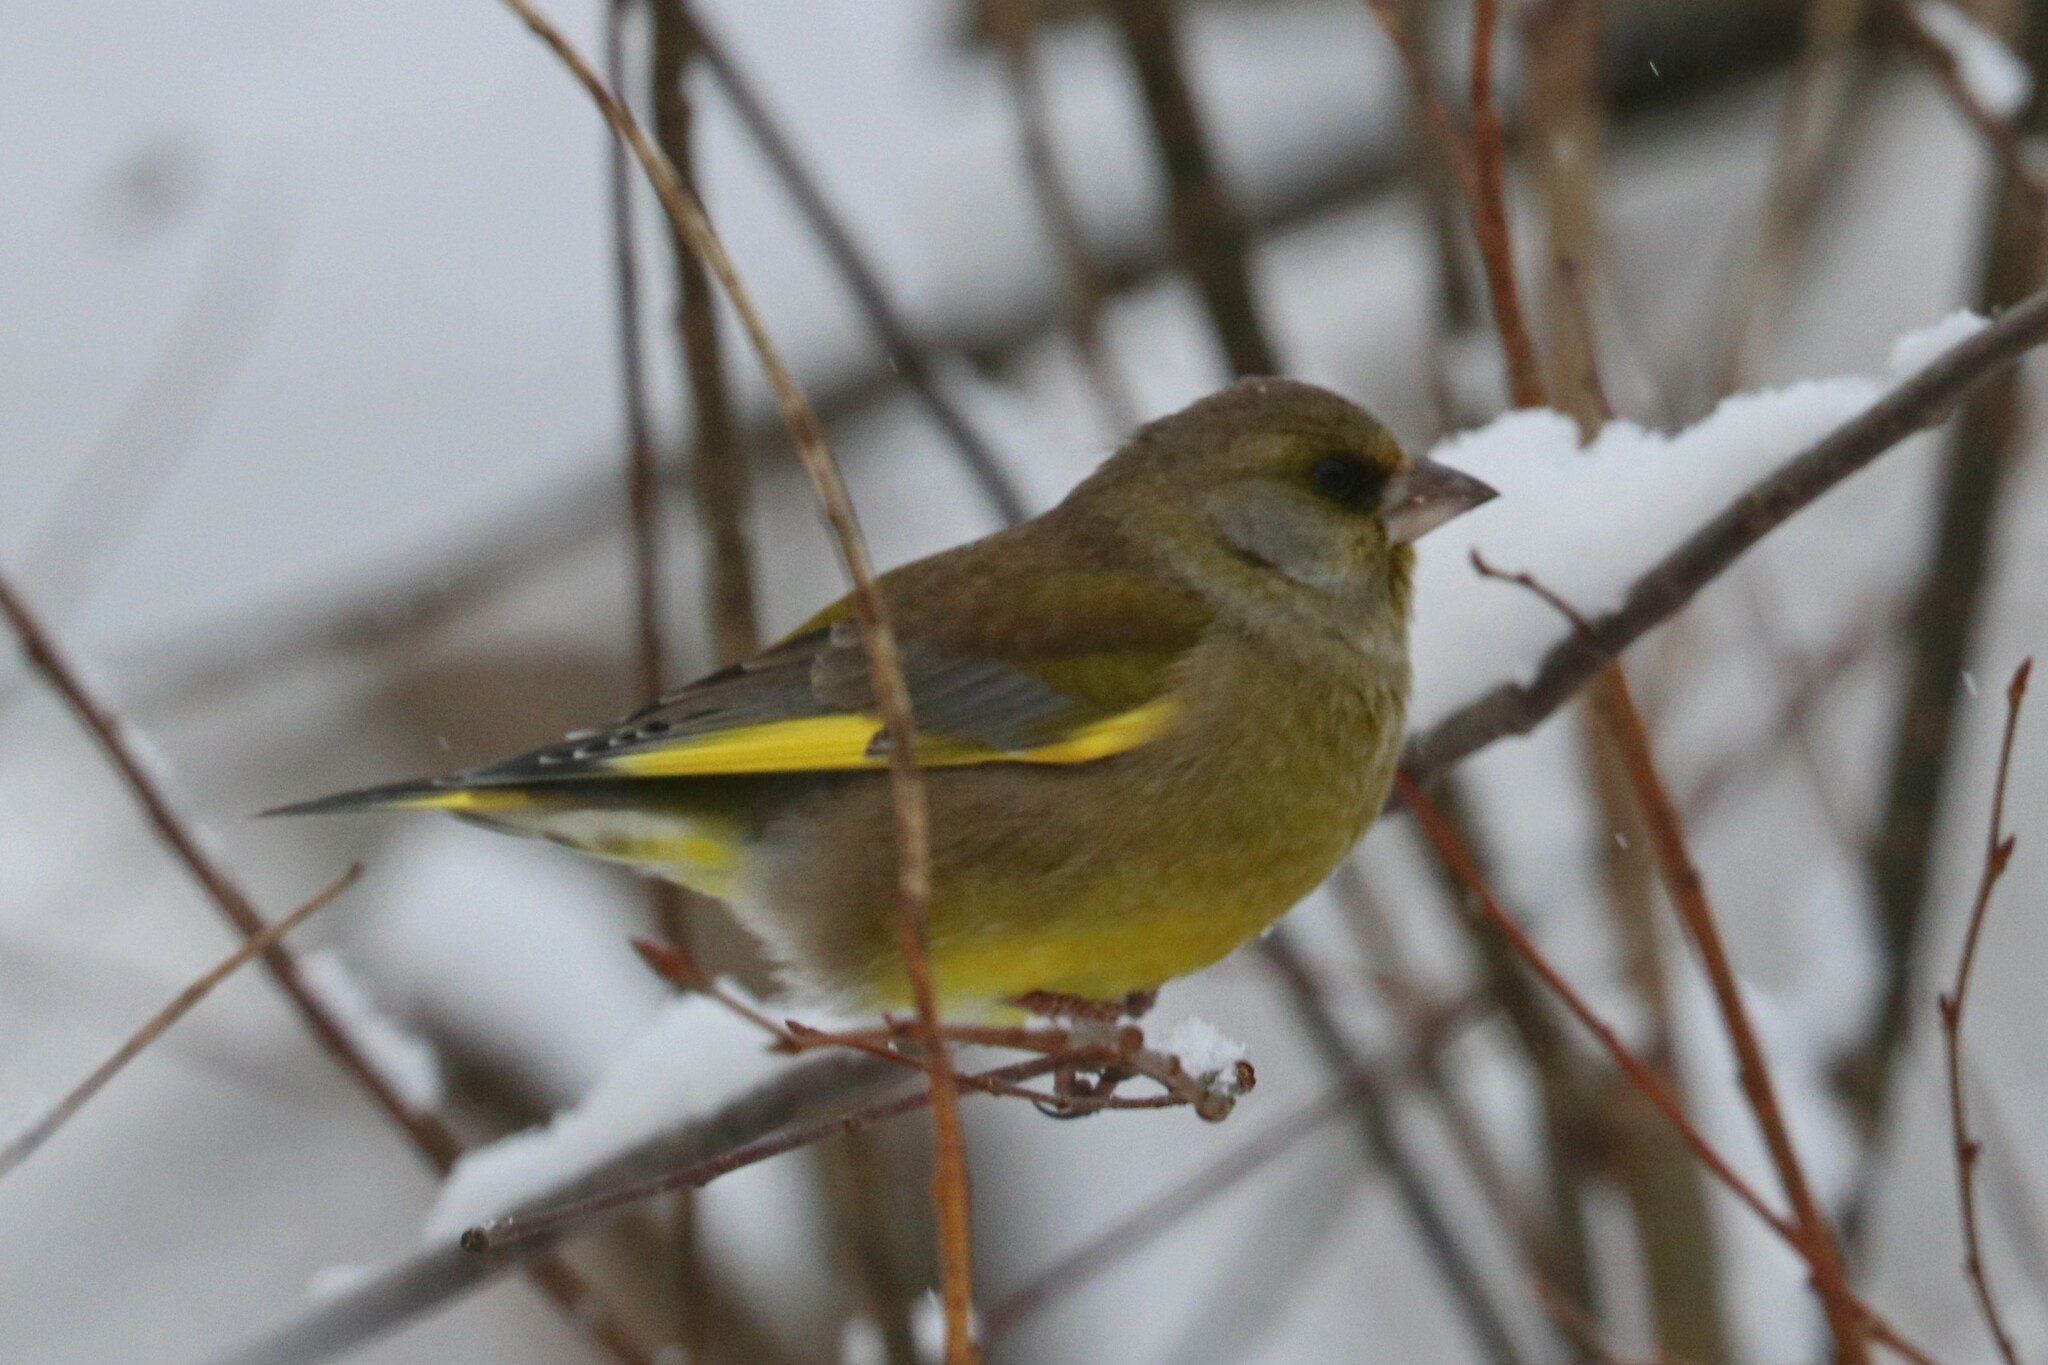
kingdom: Plantae
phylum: Tracheophyta
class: Liliopsida
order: Poales
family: Poaceae
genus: Chloris
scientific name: Chloris chloris
